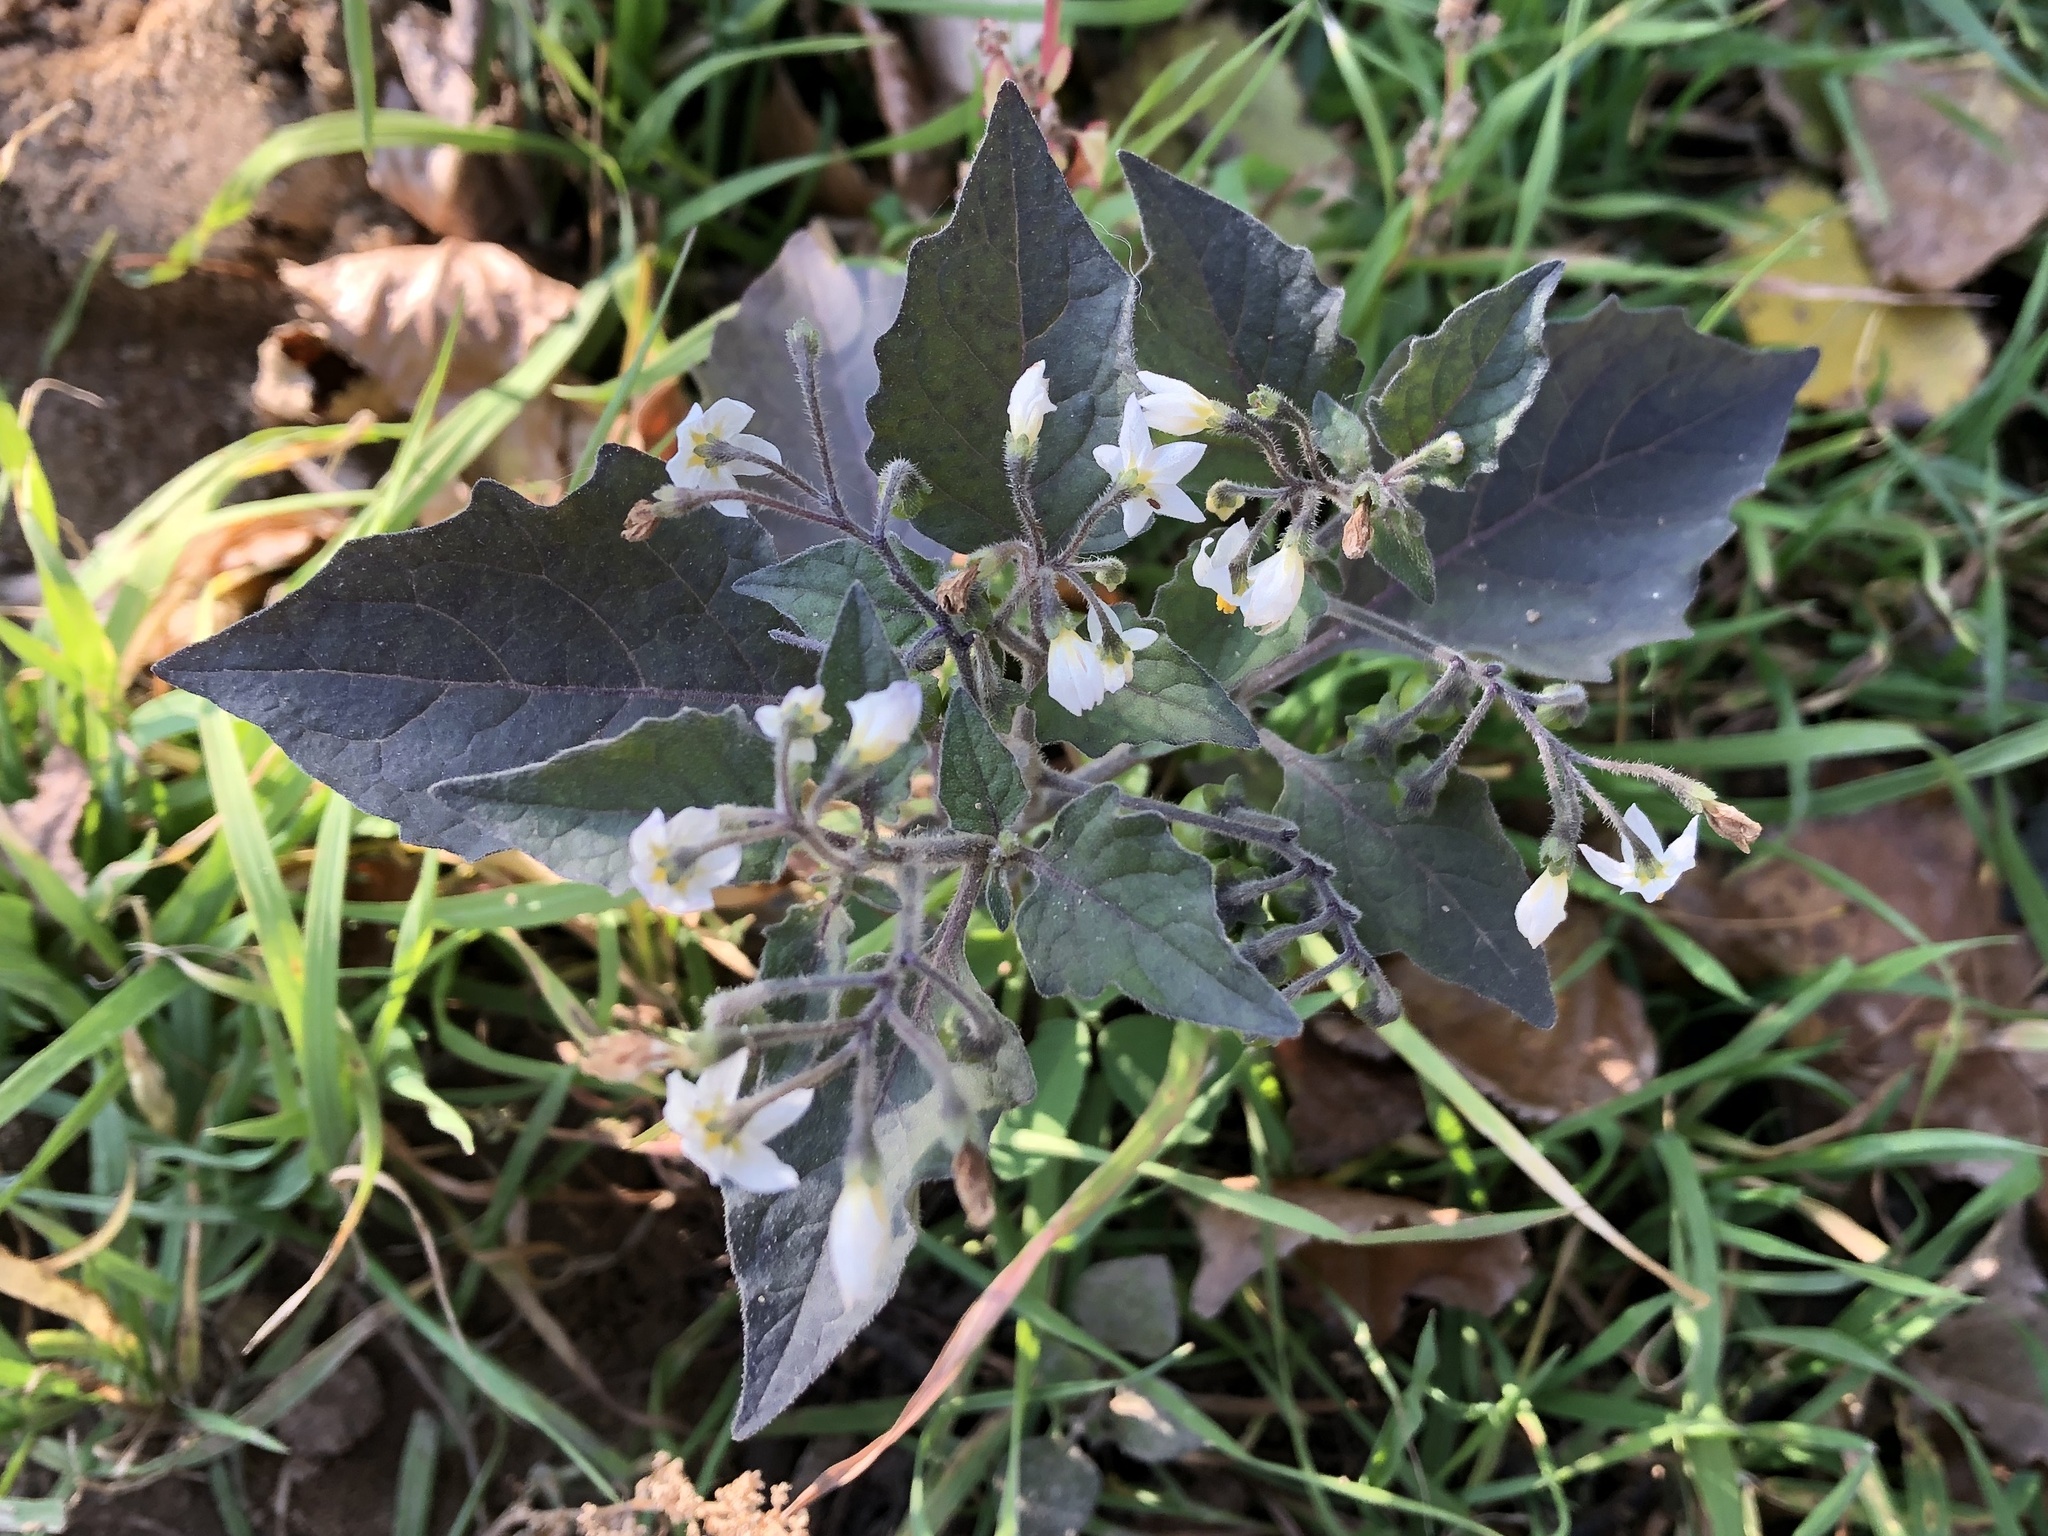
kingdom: Plantae
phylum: Tracheophyta
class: Magnoliopsida
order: Solanales
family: Solanaceae
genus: Solanum
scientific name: Solanum nigrum
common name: Black nightshade
